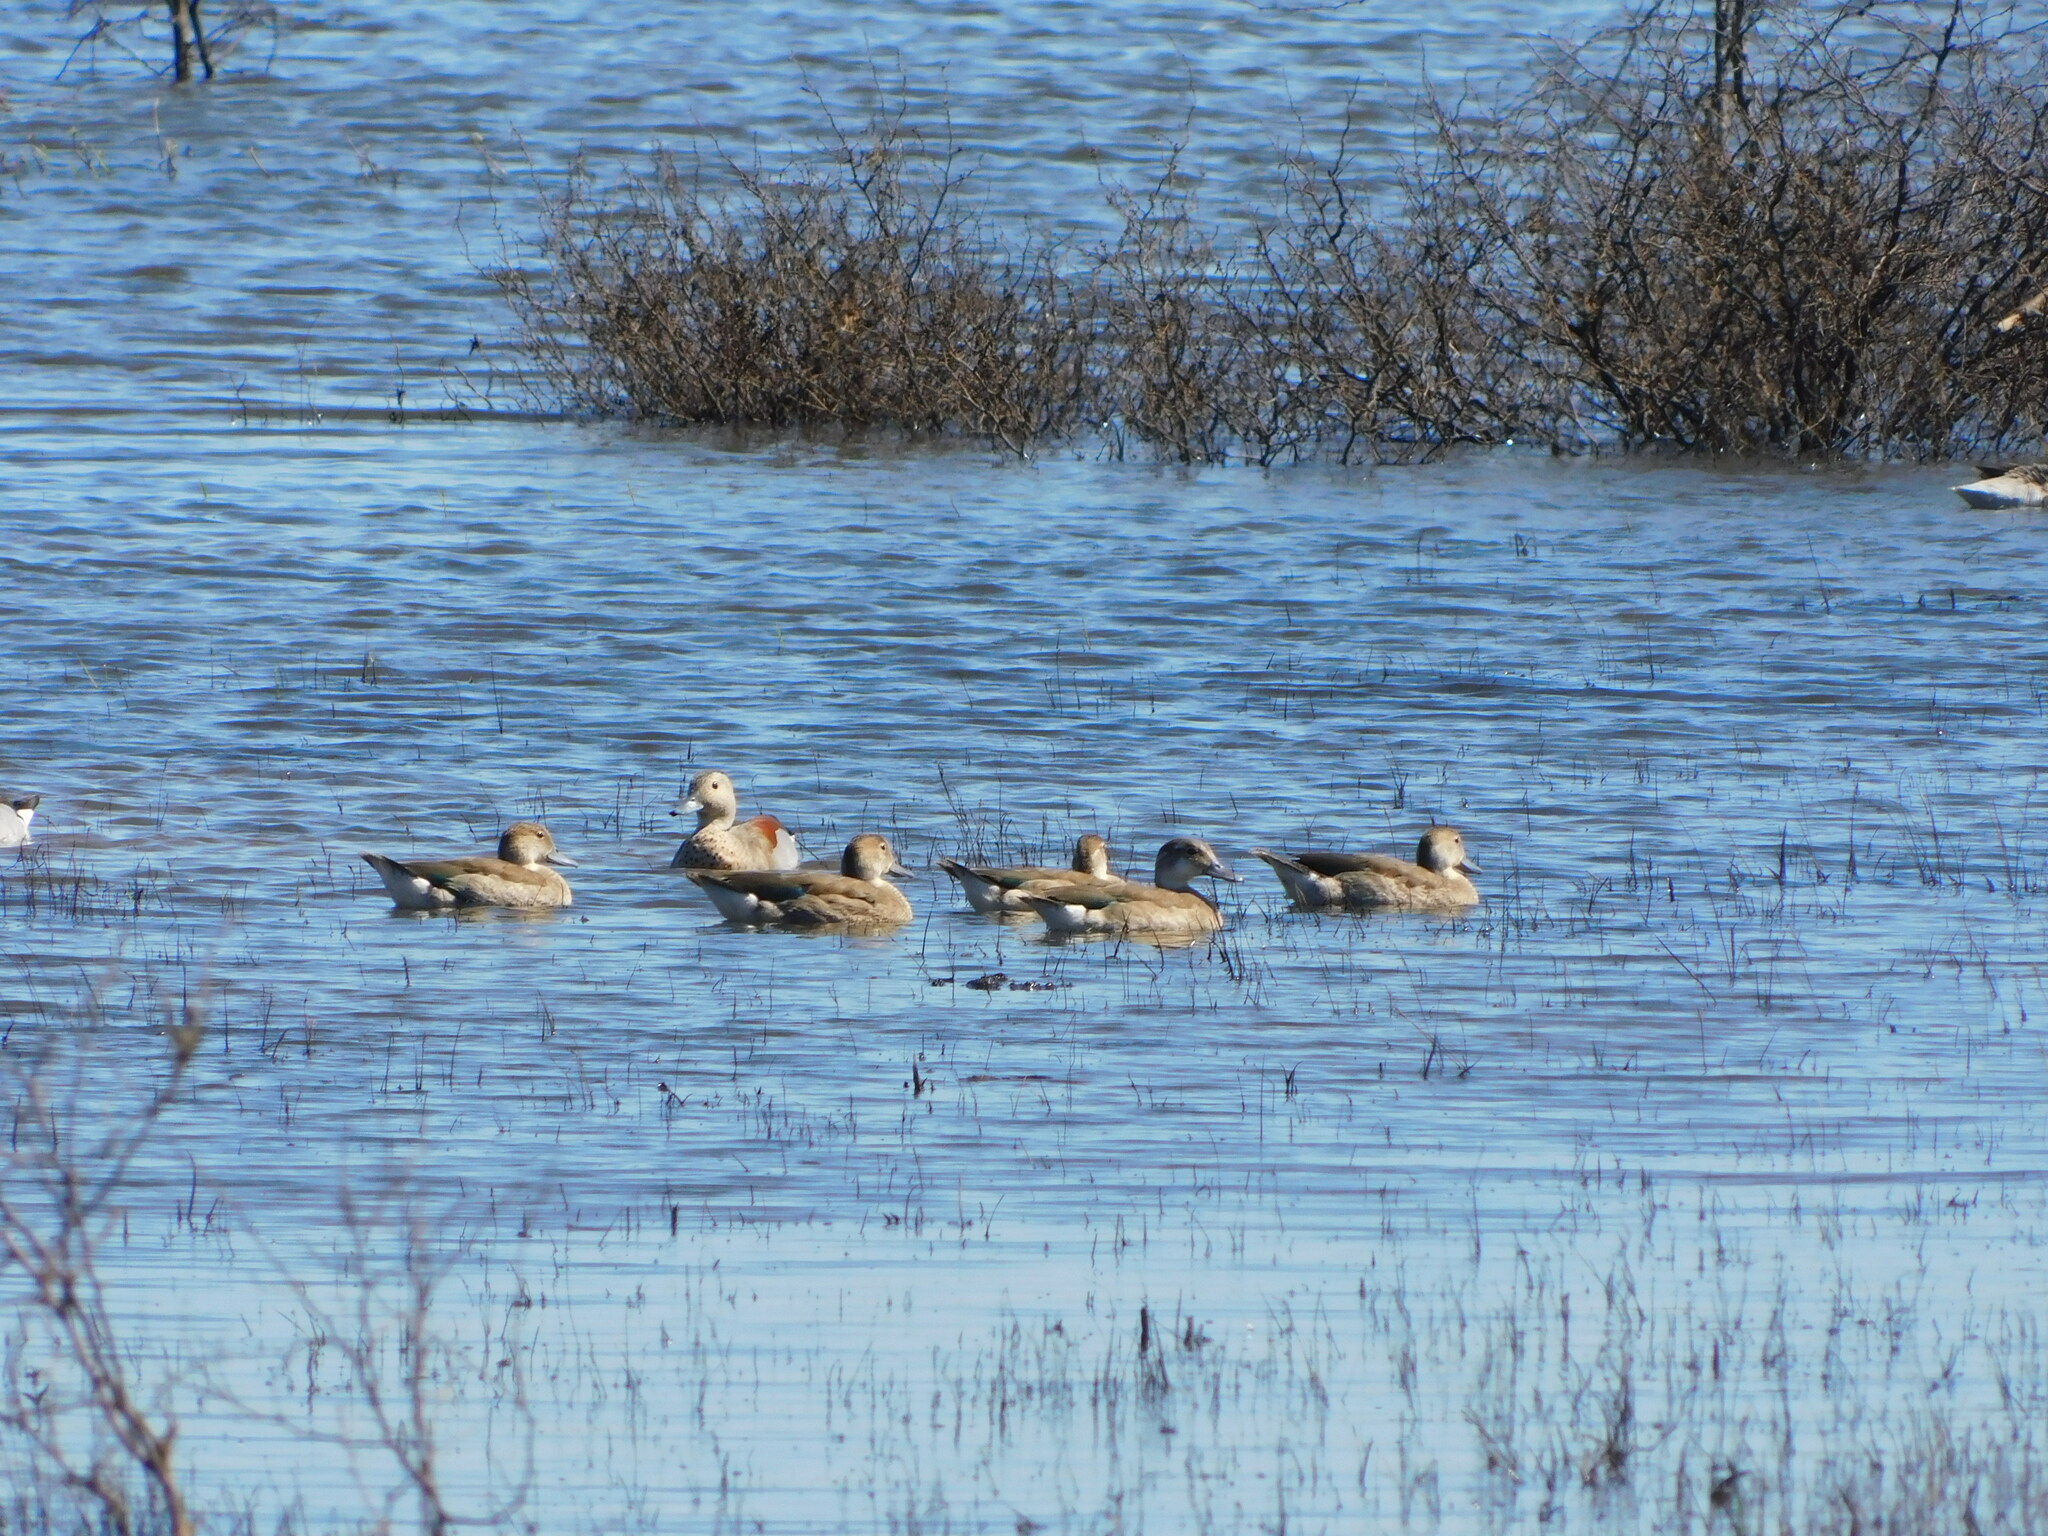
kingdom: Animalia
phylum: Chordata
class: Aves
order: Anseriformes
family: Anatidae
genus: Callonetta
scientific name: Callonetta leucophrys
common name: Ringed teal
